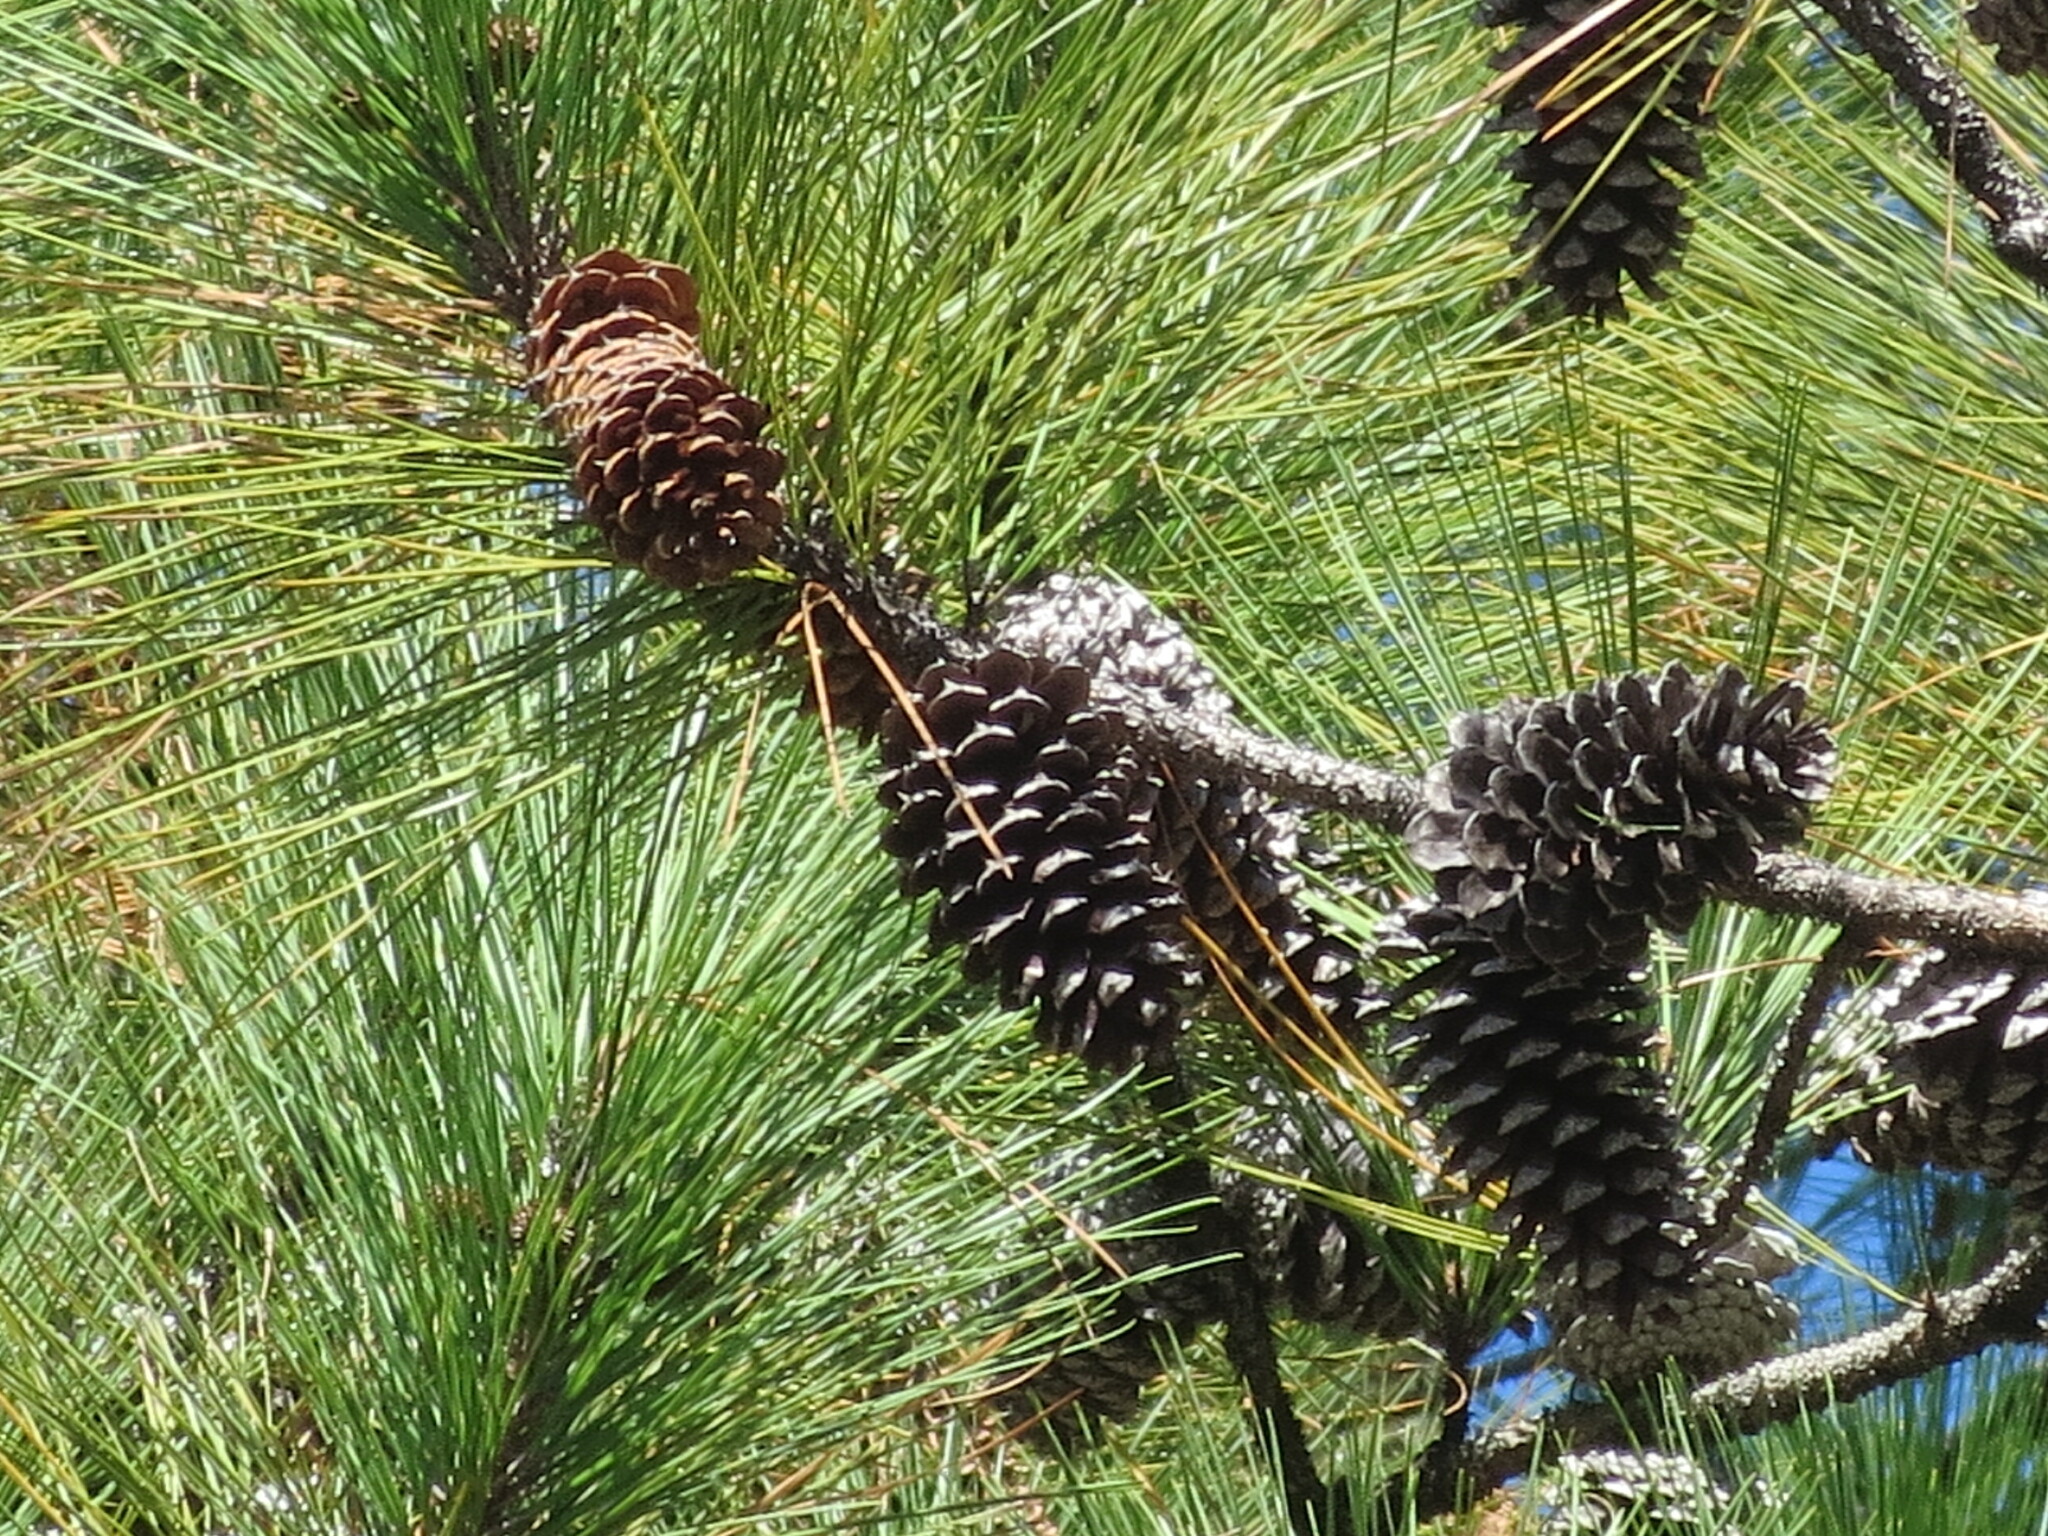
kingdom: Plantae
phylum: Tracheophyta
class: Pinopsida
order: Pinales
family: Pinaceae
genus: Pinus
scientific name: Pinus taeda
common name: Loblolly pine
